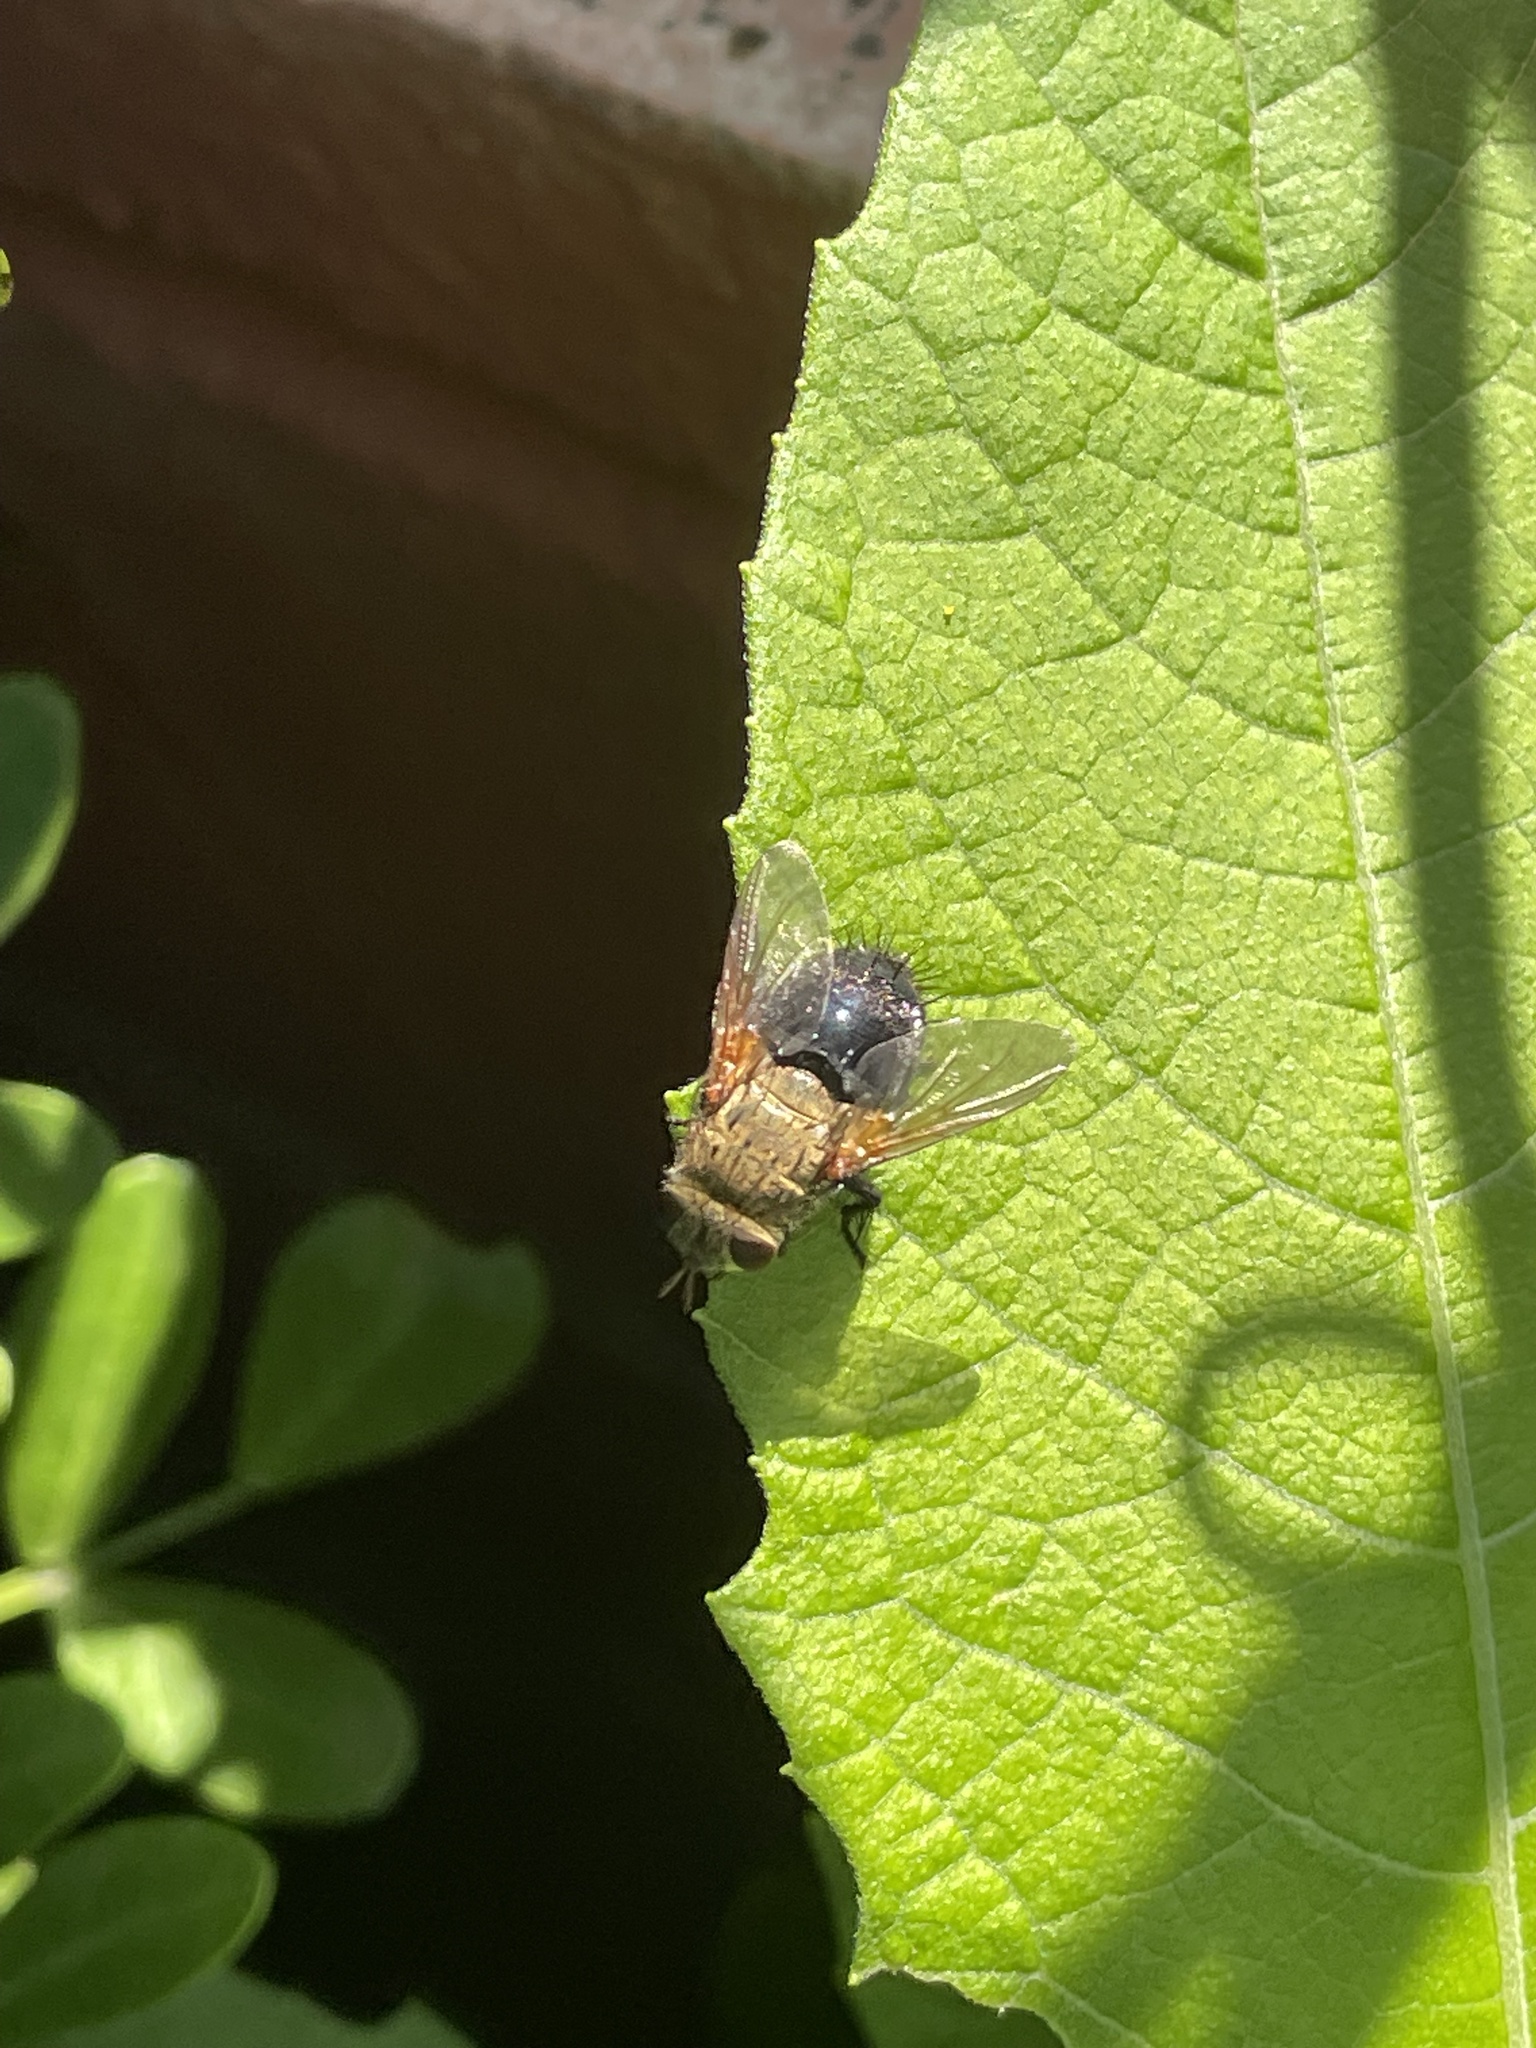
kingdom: Animalia
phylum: Arthropoda
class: Insecta
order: Diptera
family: Tachinidae
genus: Archytas
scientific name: Archytas apicifer
